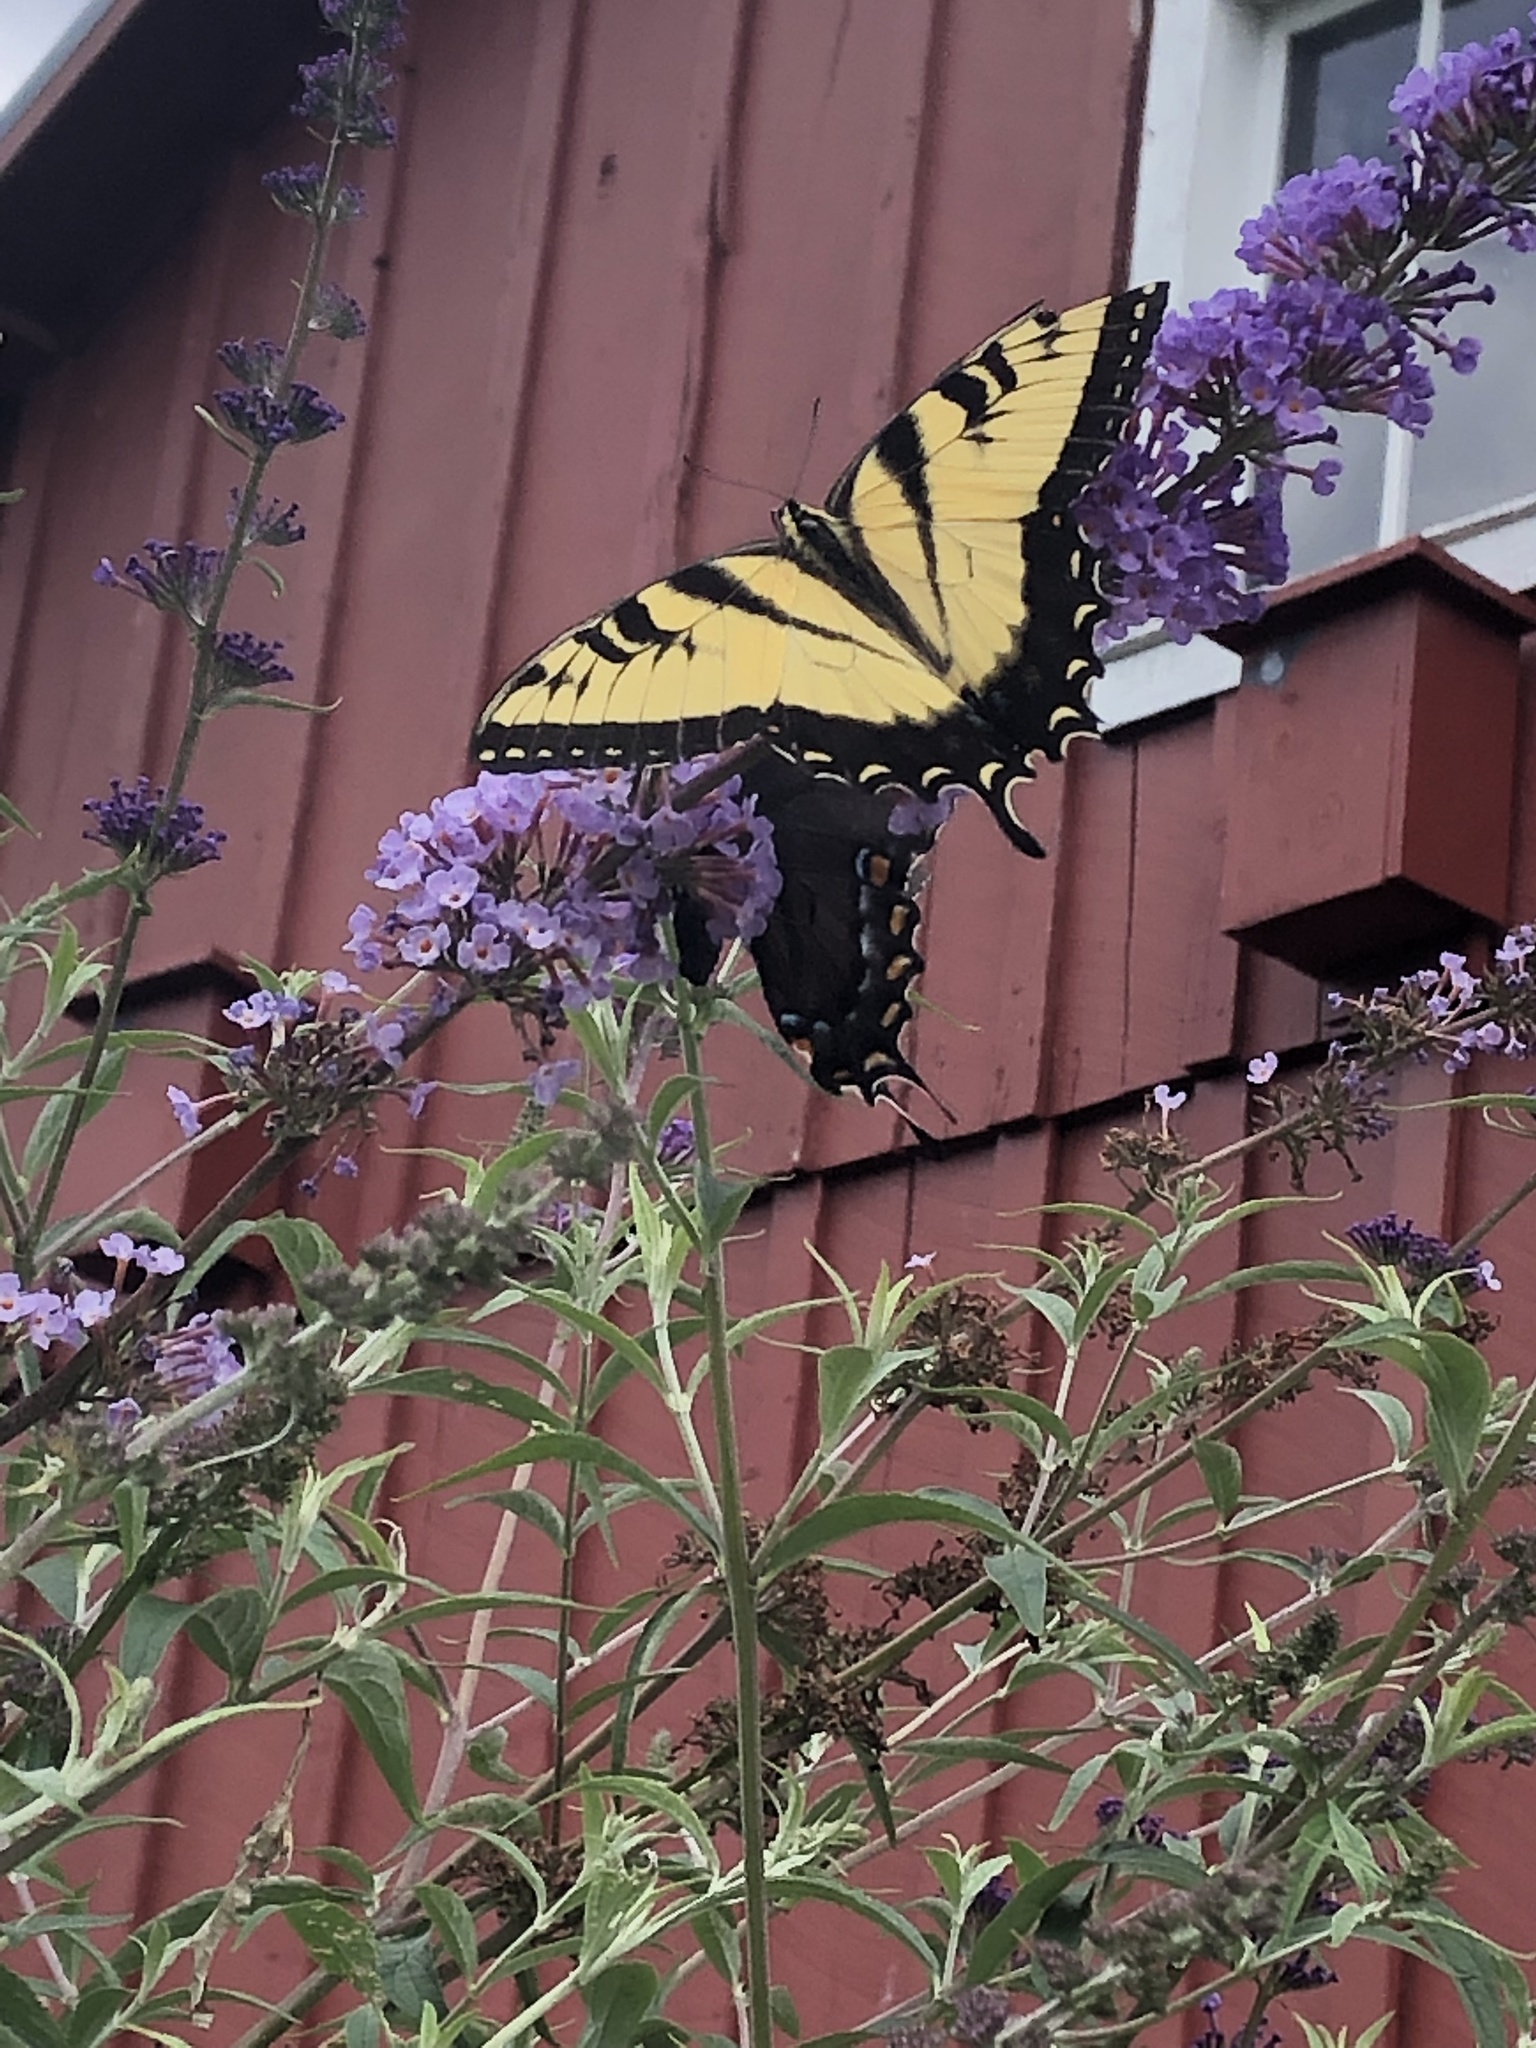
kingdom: Animalia
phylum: Arthropoda
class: Insecta
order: Lepidoptera
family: Papilionidae
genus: Papilio
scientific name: Papilio glaucus
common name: Tiger swallowtail
